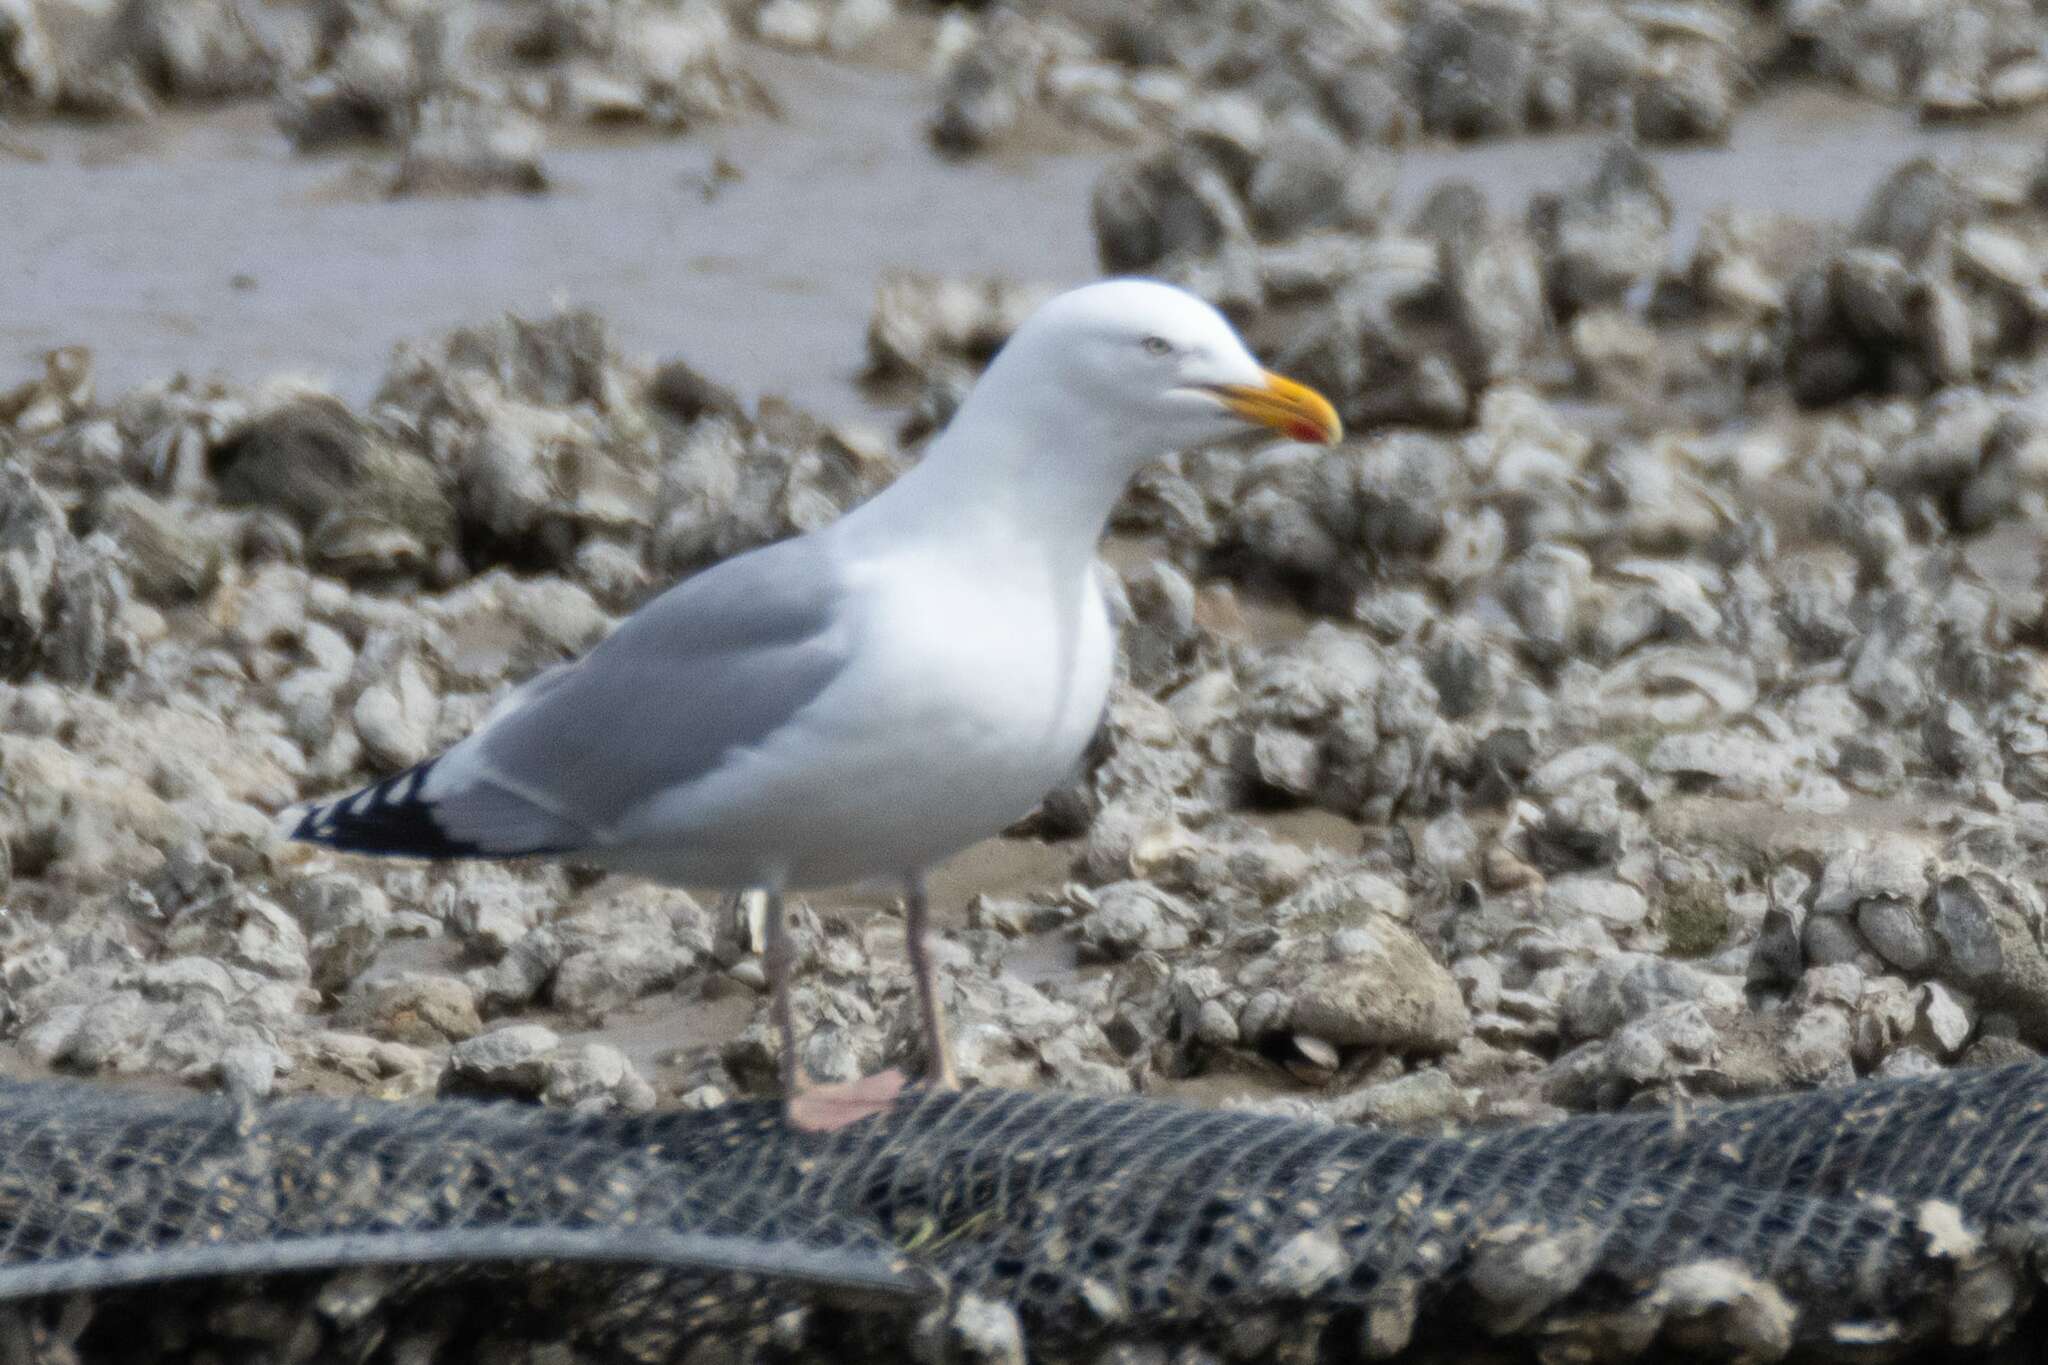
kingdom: Animalia
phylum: Chordata
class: Aves
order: Charadriiformes
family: Laridae
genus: Larus
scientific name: Larus argentatus
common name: Herring gull
